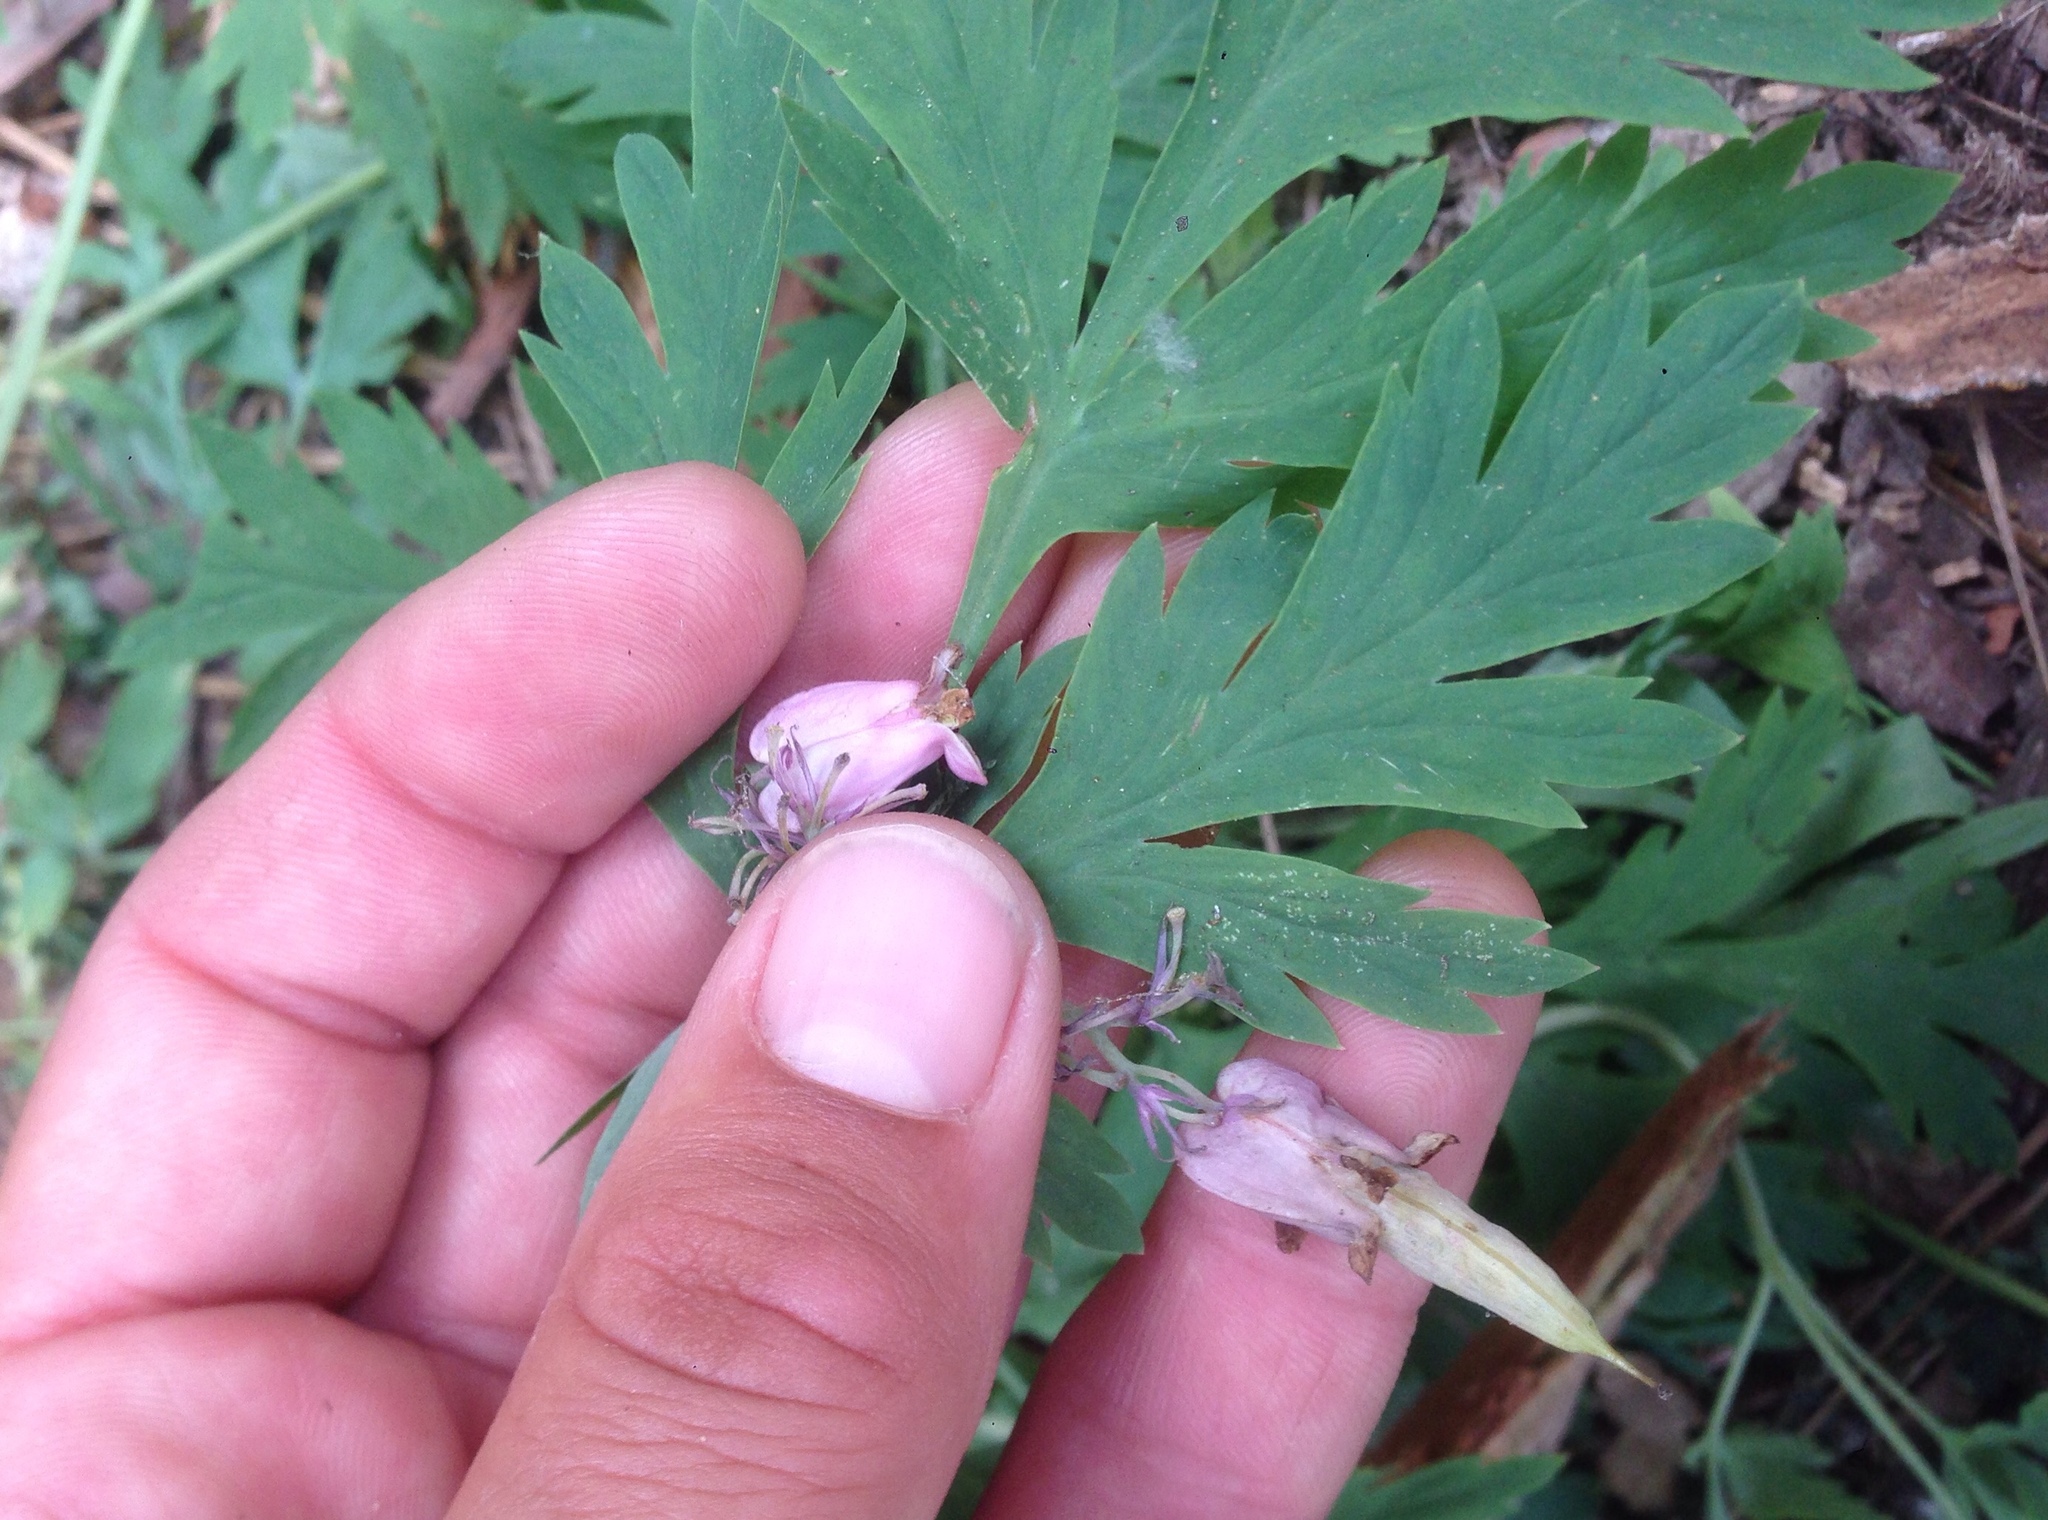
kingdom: Plantae
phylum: Tracheophyta
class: Magnoliopsida
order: Ranunculales
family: Papaveraceae
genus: Dicentra
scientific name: Dicentra formosa
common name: Bleeding-heart
